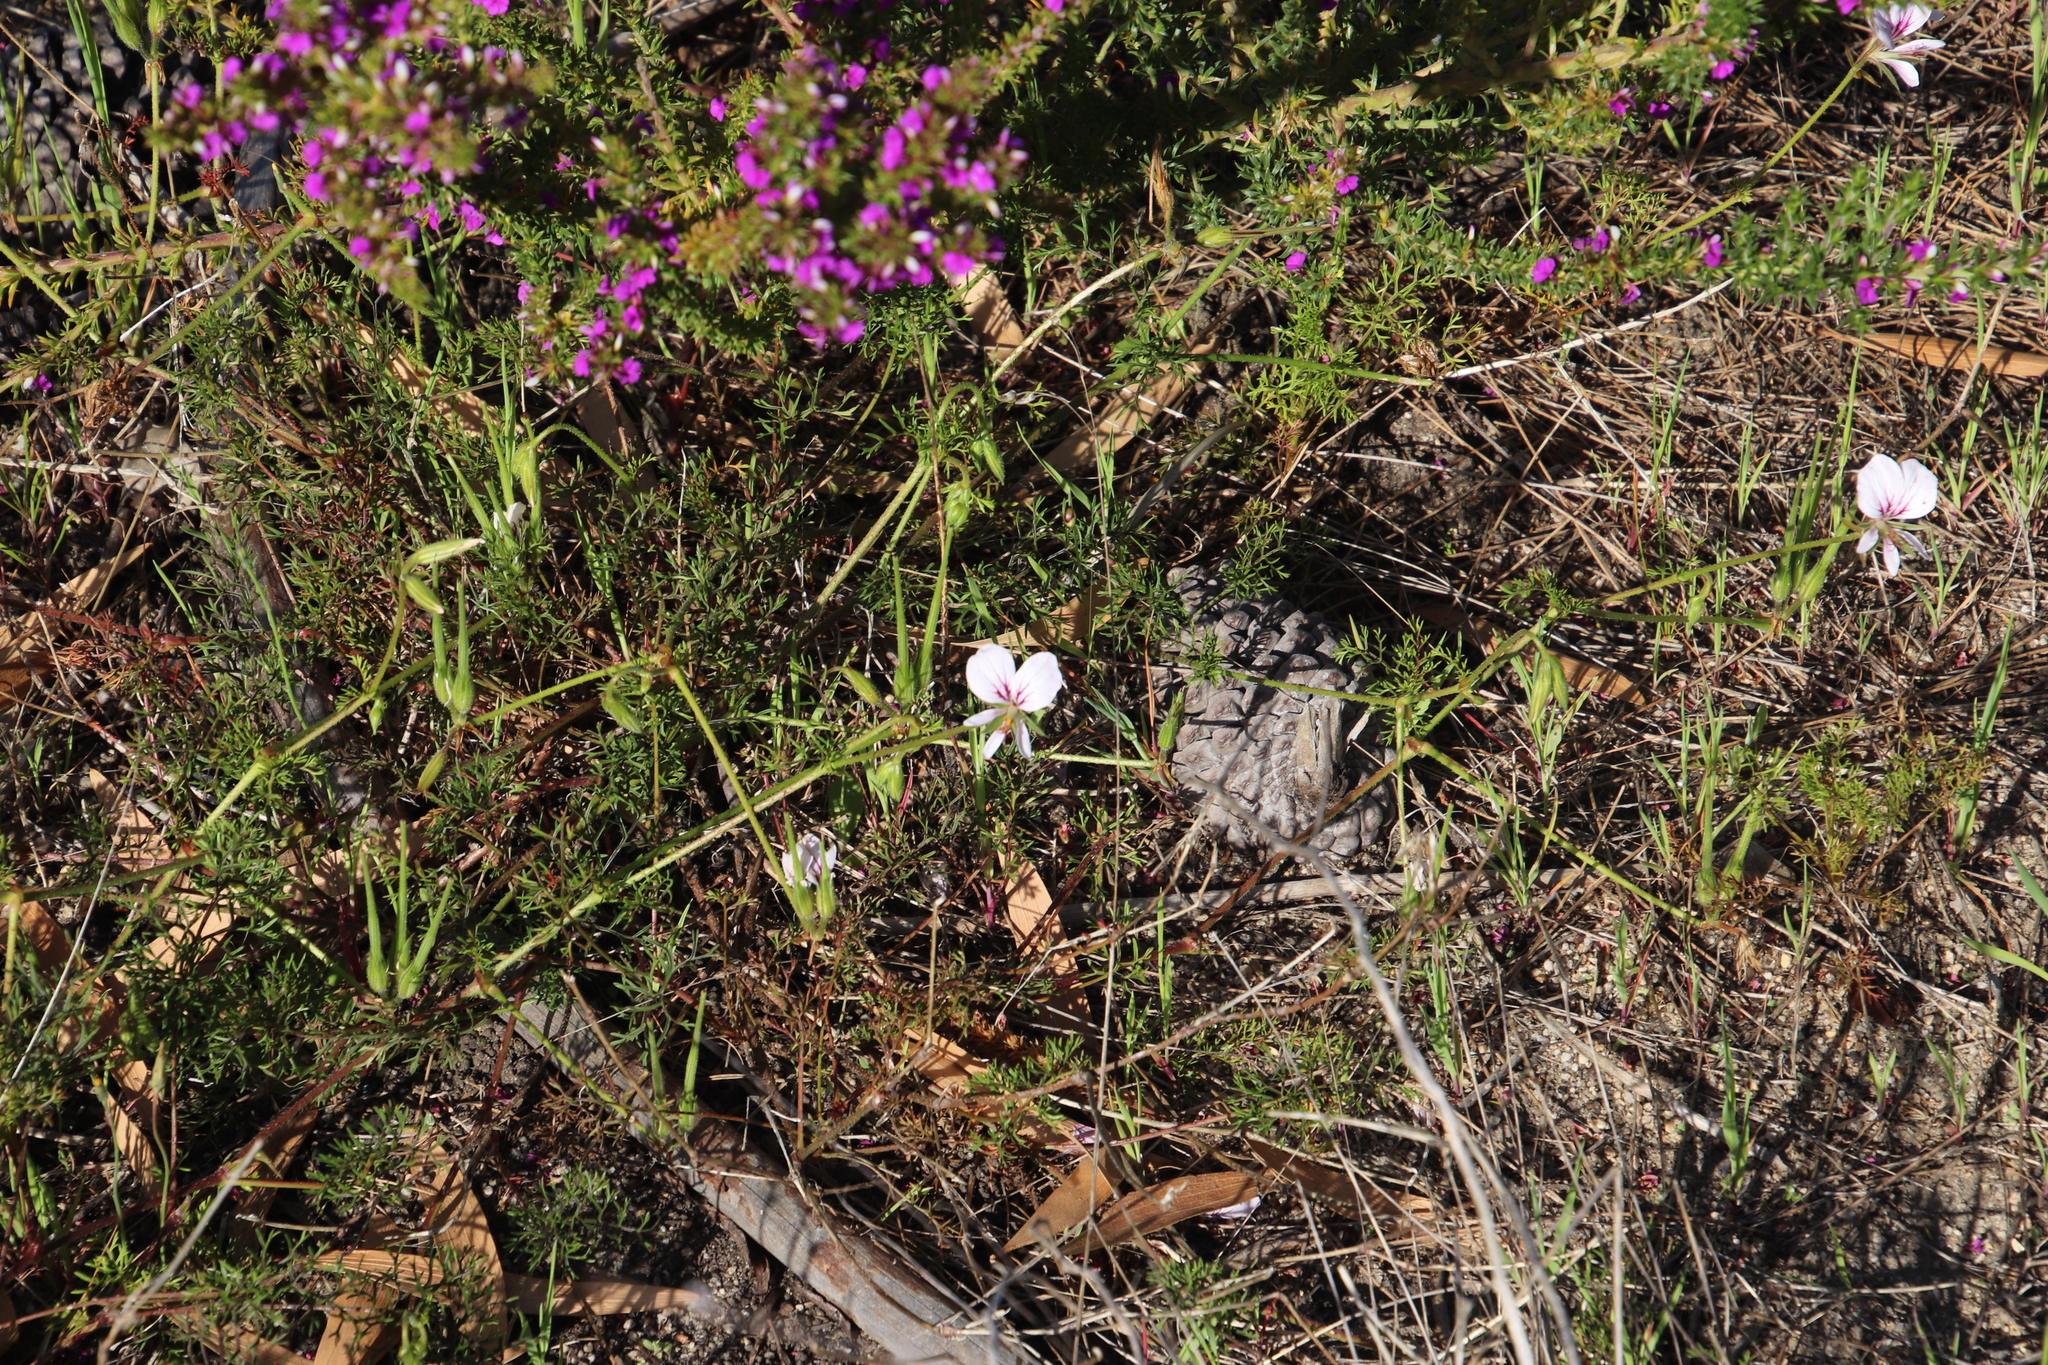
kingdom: Plantae
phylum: Tracheophyta
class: Magnoliopsida
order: Geraniales
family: Geraniaceae
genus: Pelargonium
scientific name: Pelargonium myrrhifolium
